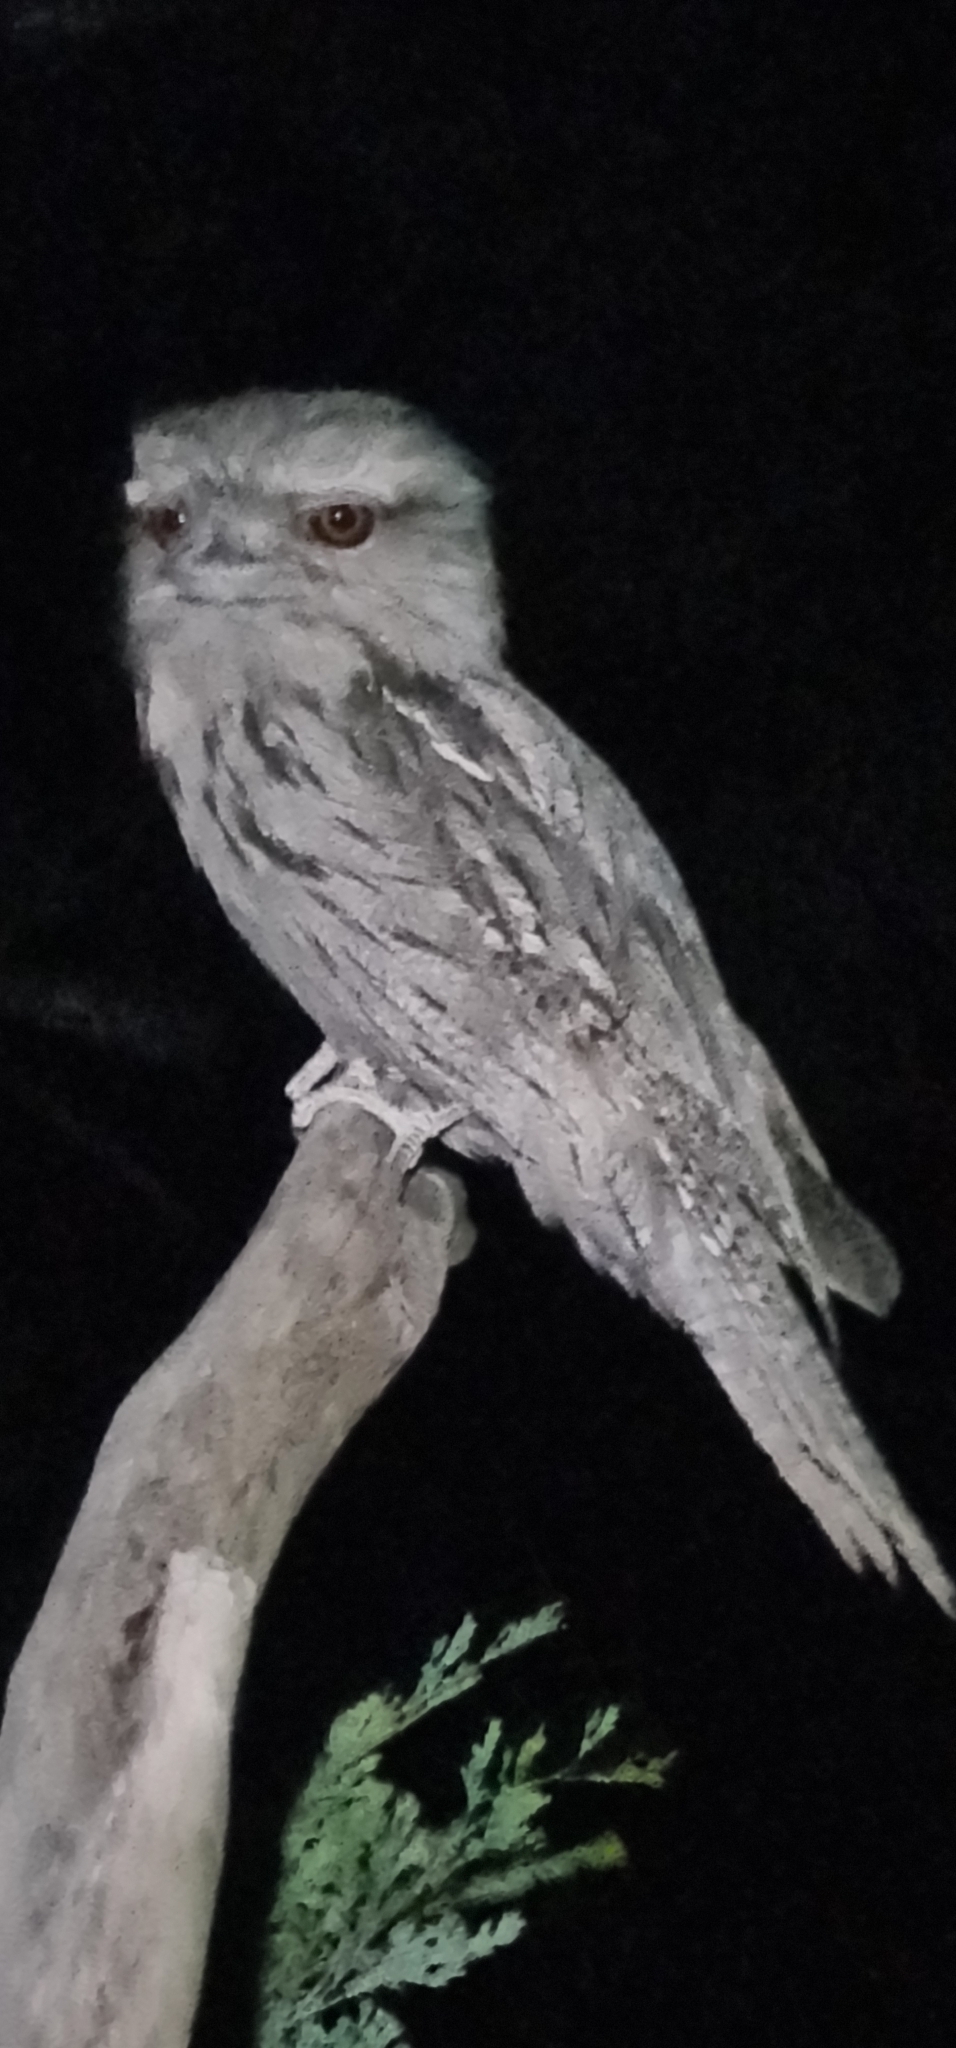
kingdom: Animalia
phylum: Chordata
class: Aves
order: Caprimulgiformes
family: Podargidae
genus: Podargus
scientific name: Podargus strigoides
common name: Tawny frogmouth
